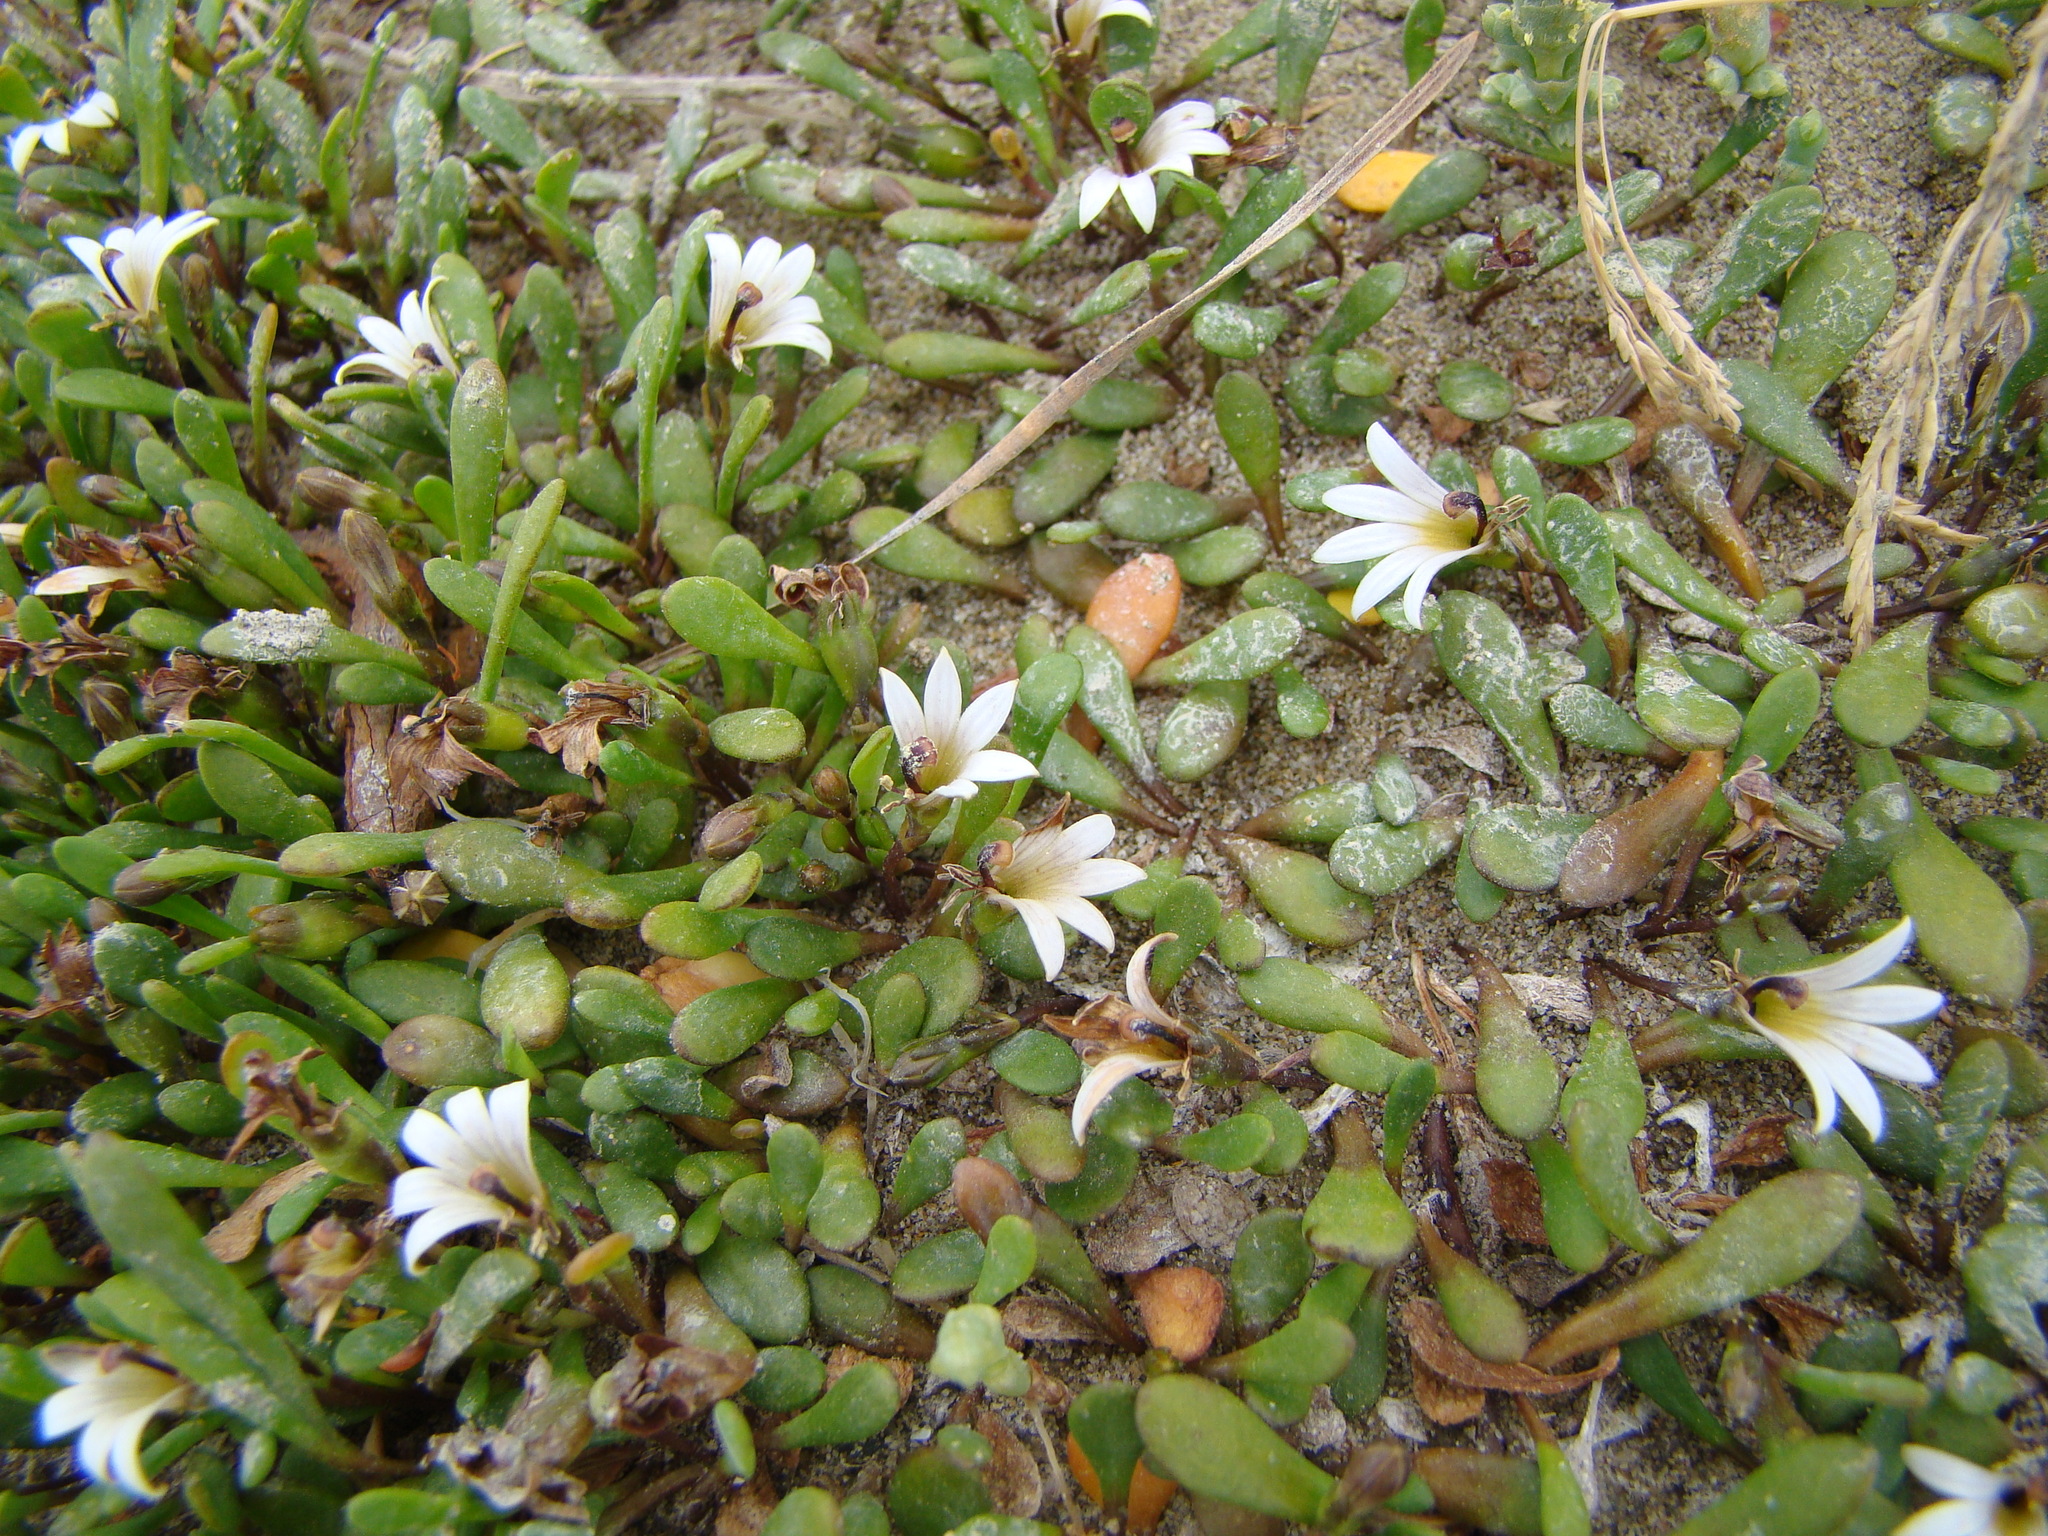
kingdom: Plantae
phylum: Tracheophyta
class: Magnoliopsida
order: Asterales
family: Goodeniaceae
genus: Goodenia
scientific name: Goodenia radicans
